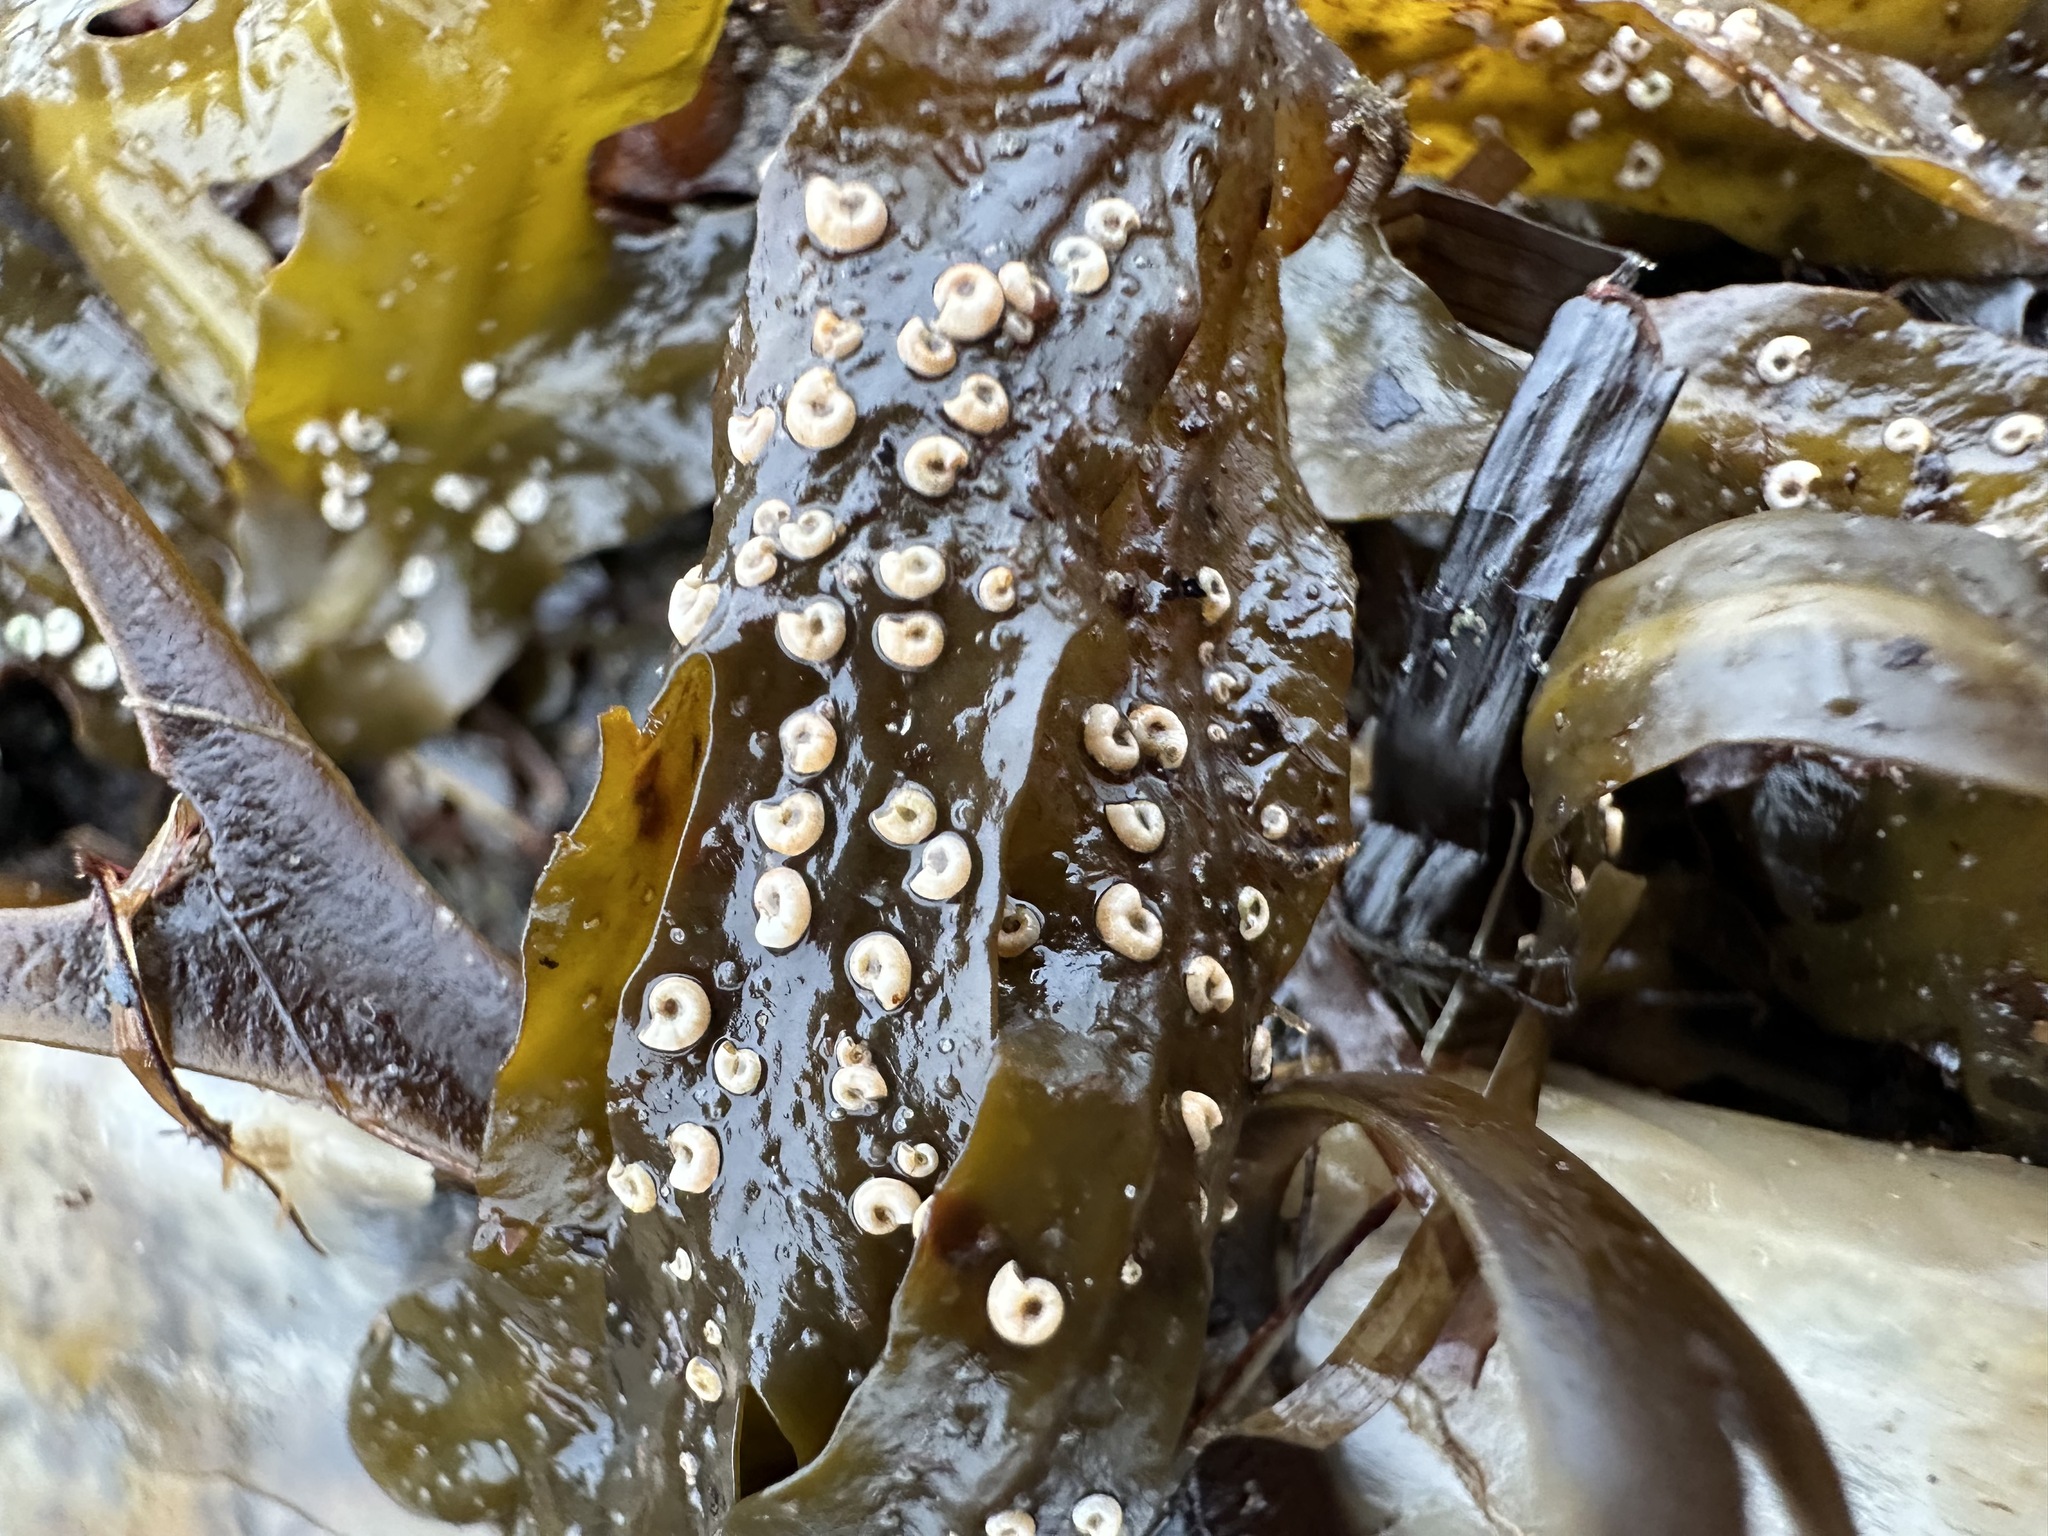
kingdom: Animalia
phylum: Annelida
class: Polychaeta
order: Sabellida
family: Serpulidae
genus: Spirorbis
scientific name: Spirorbis spirorbis
